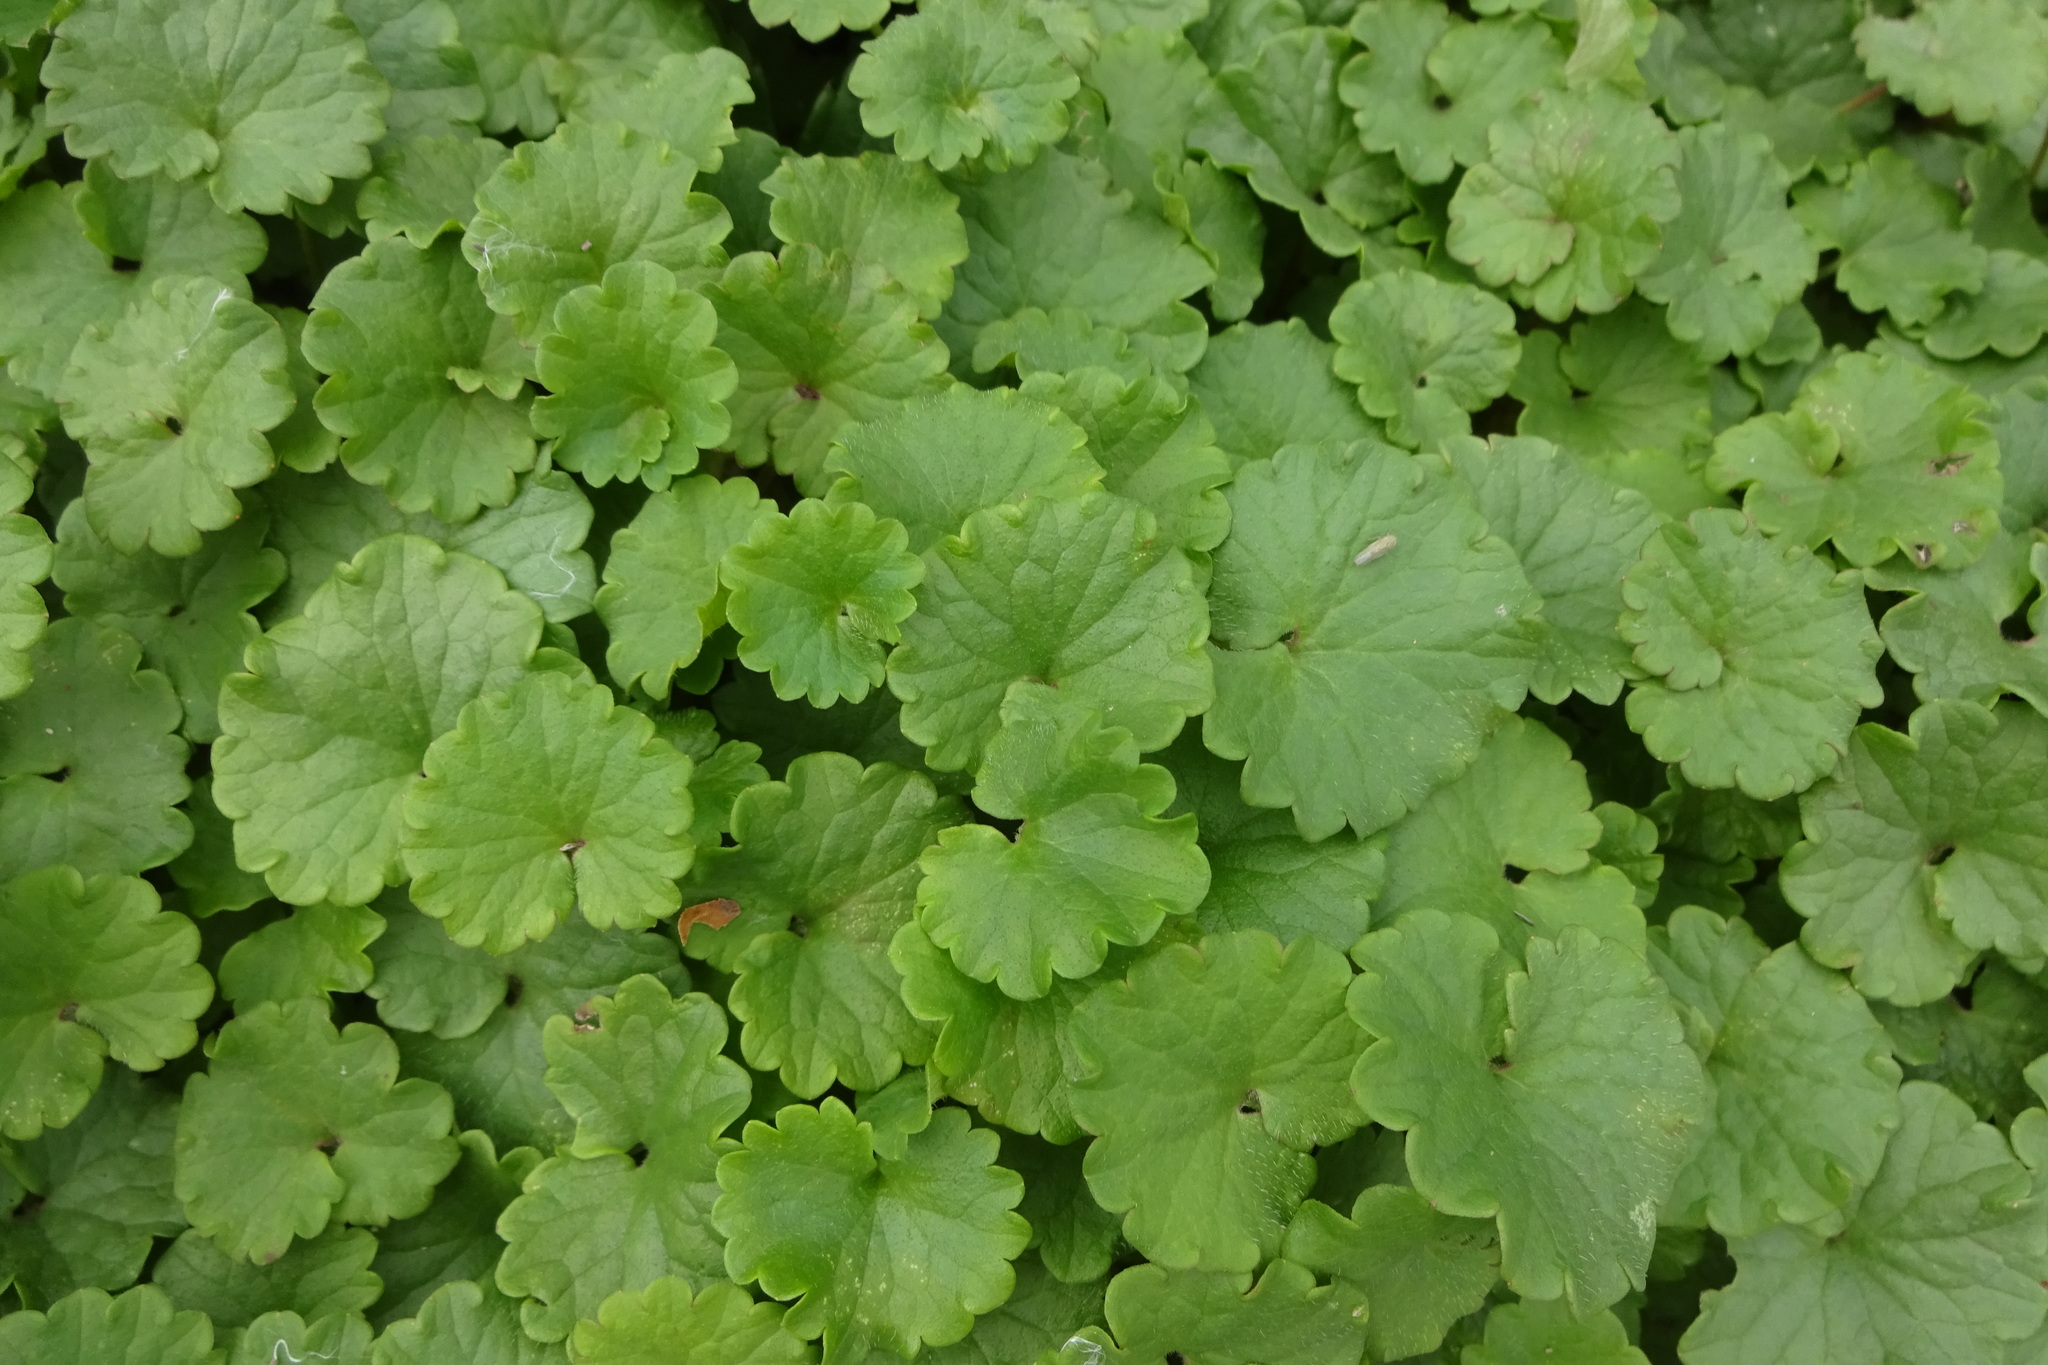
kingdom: Plantae
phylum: Tracheophyta
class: Magnoliopsida
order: Lamiales
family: Lamiaceae
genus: Glechoma
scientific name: Glechoma hederacea
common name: Ground ivy
